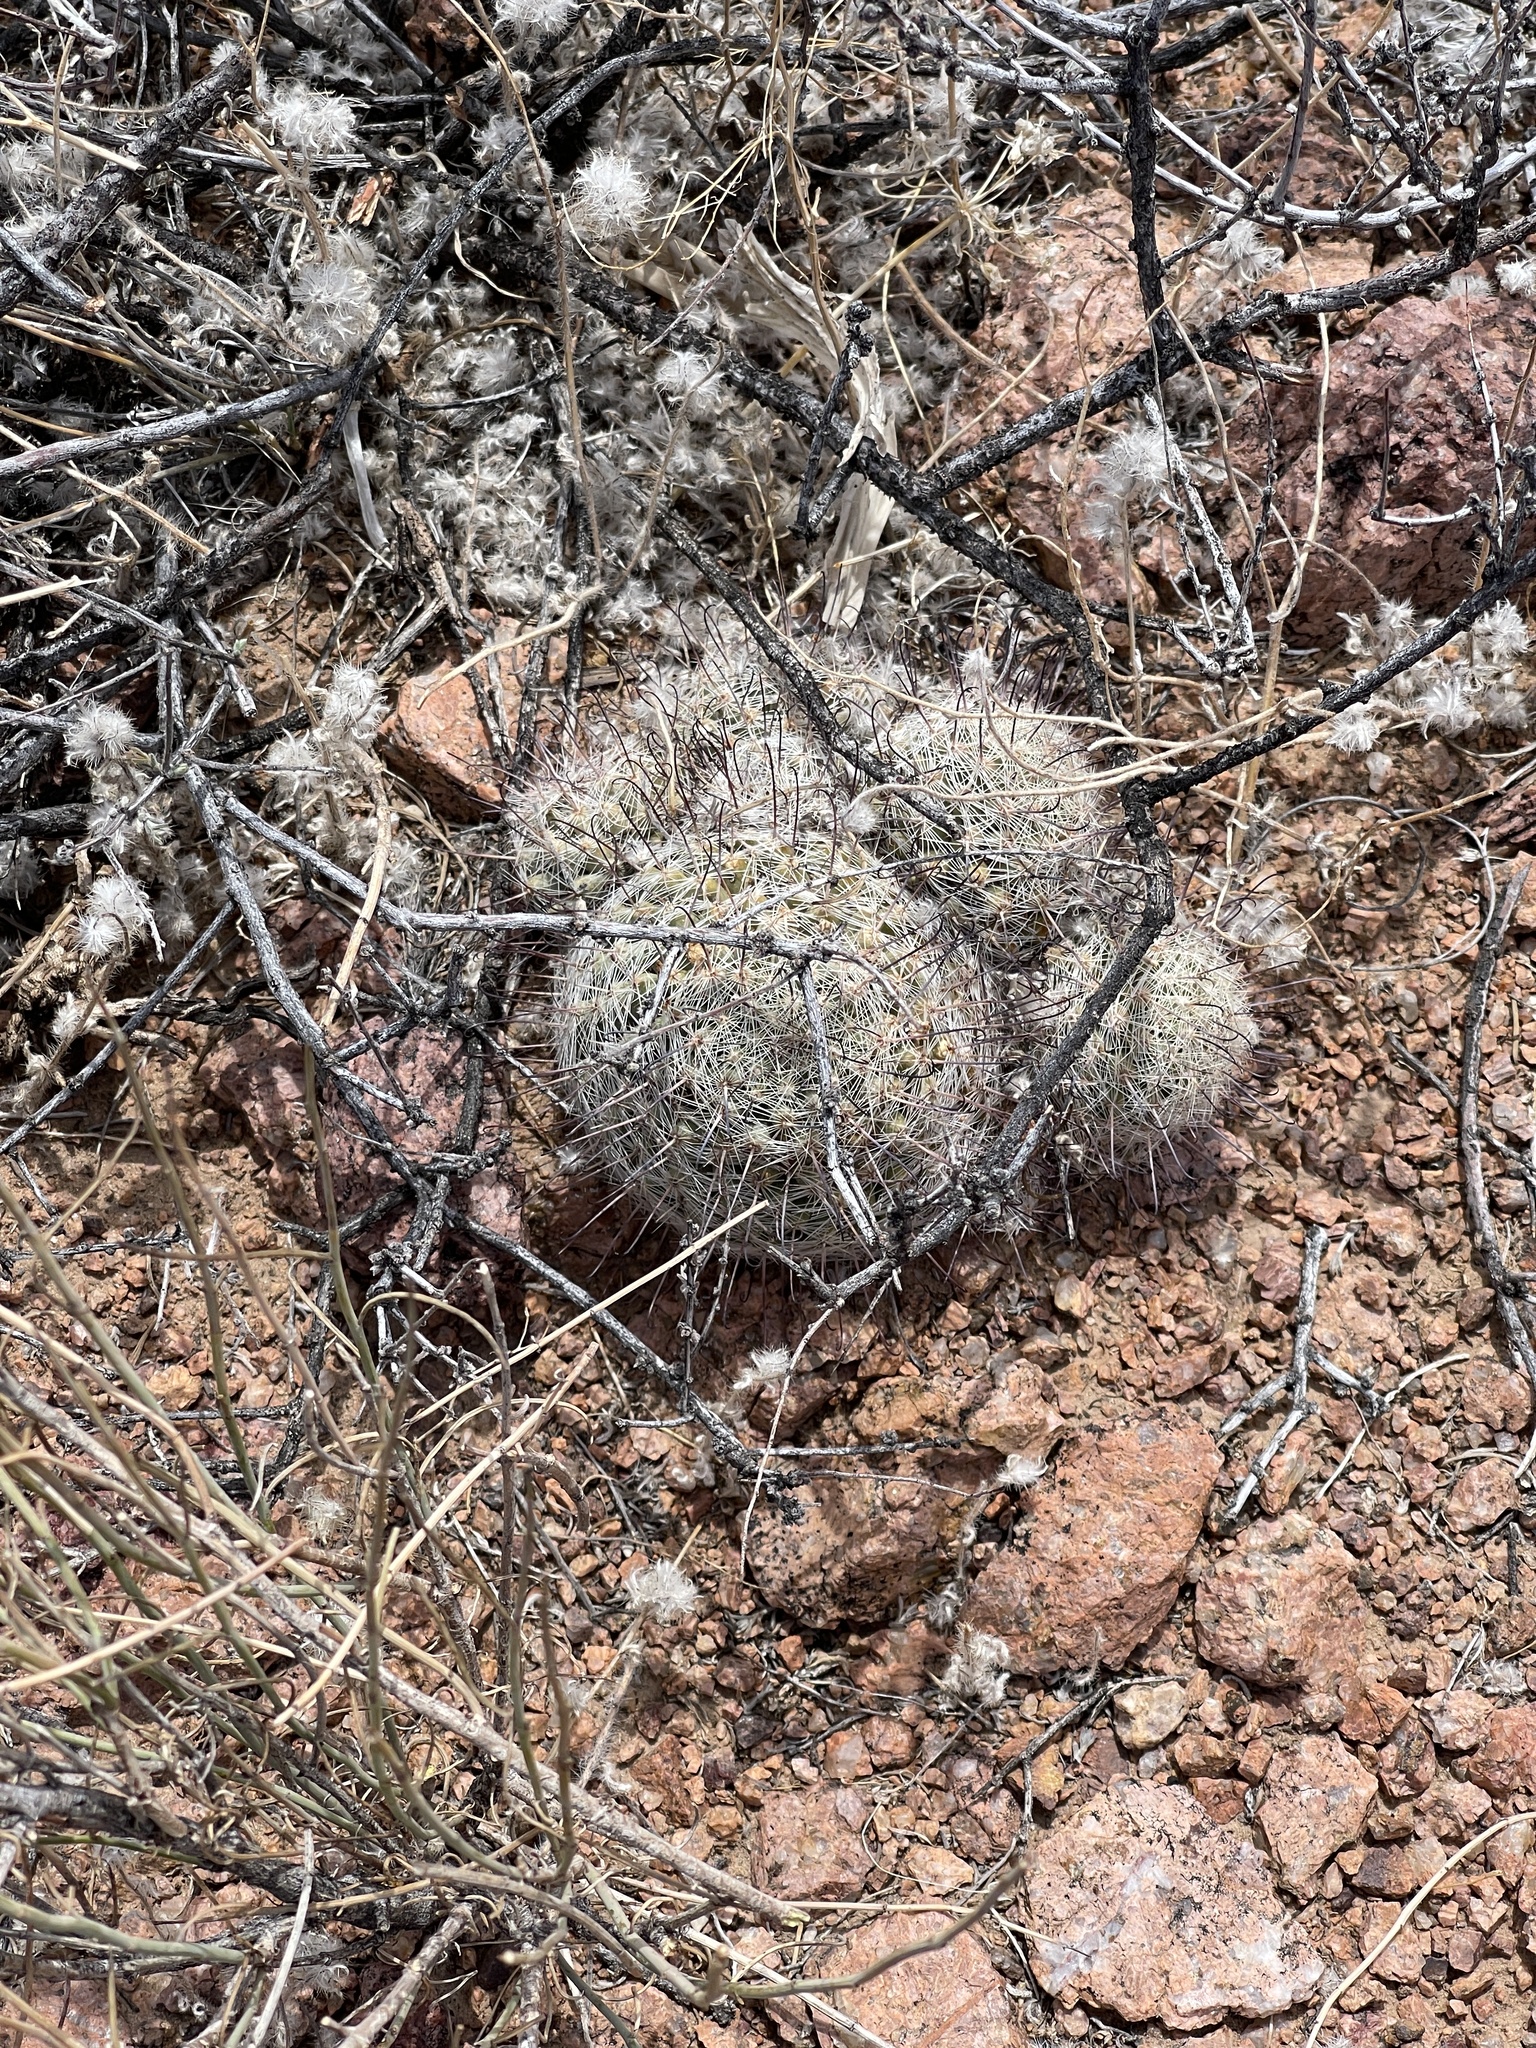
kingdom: Plantae
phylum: Tracheophyta
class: Magnoliopsida
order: Caryophyllales
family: Cactaceae
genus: Cochemiea
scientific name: Cochemiea grahamii
